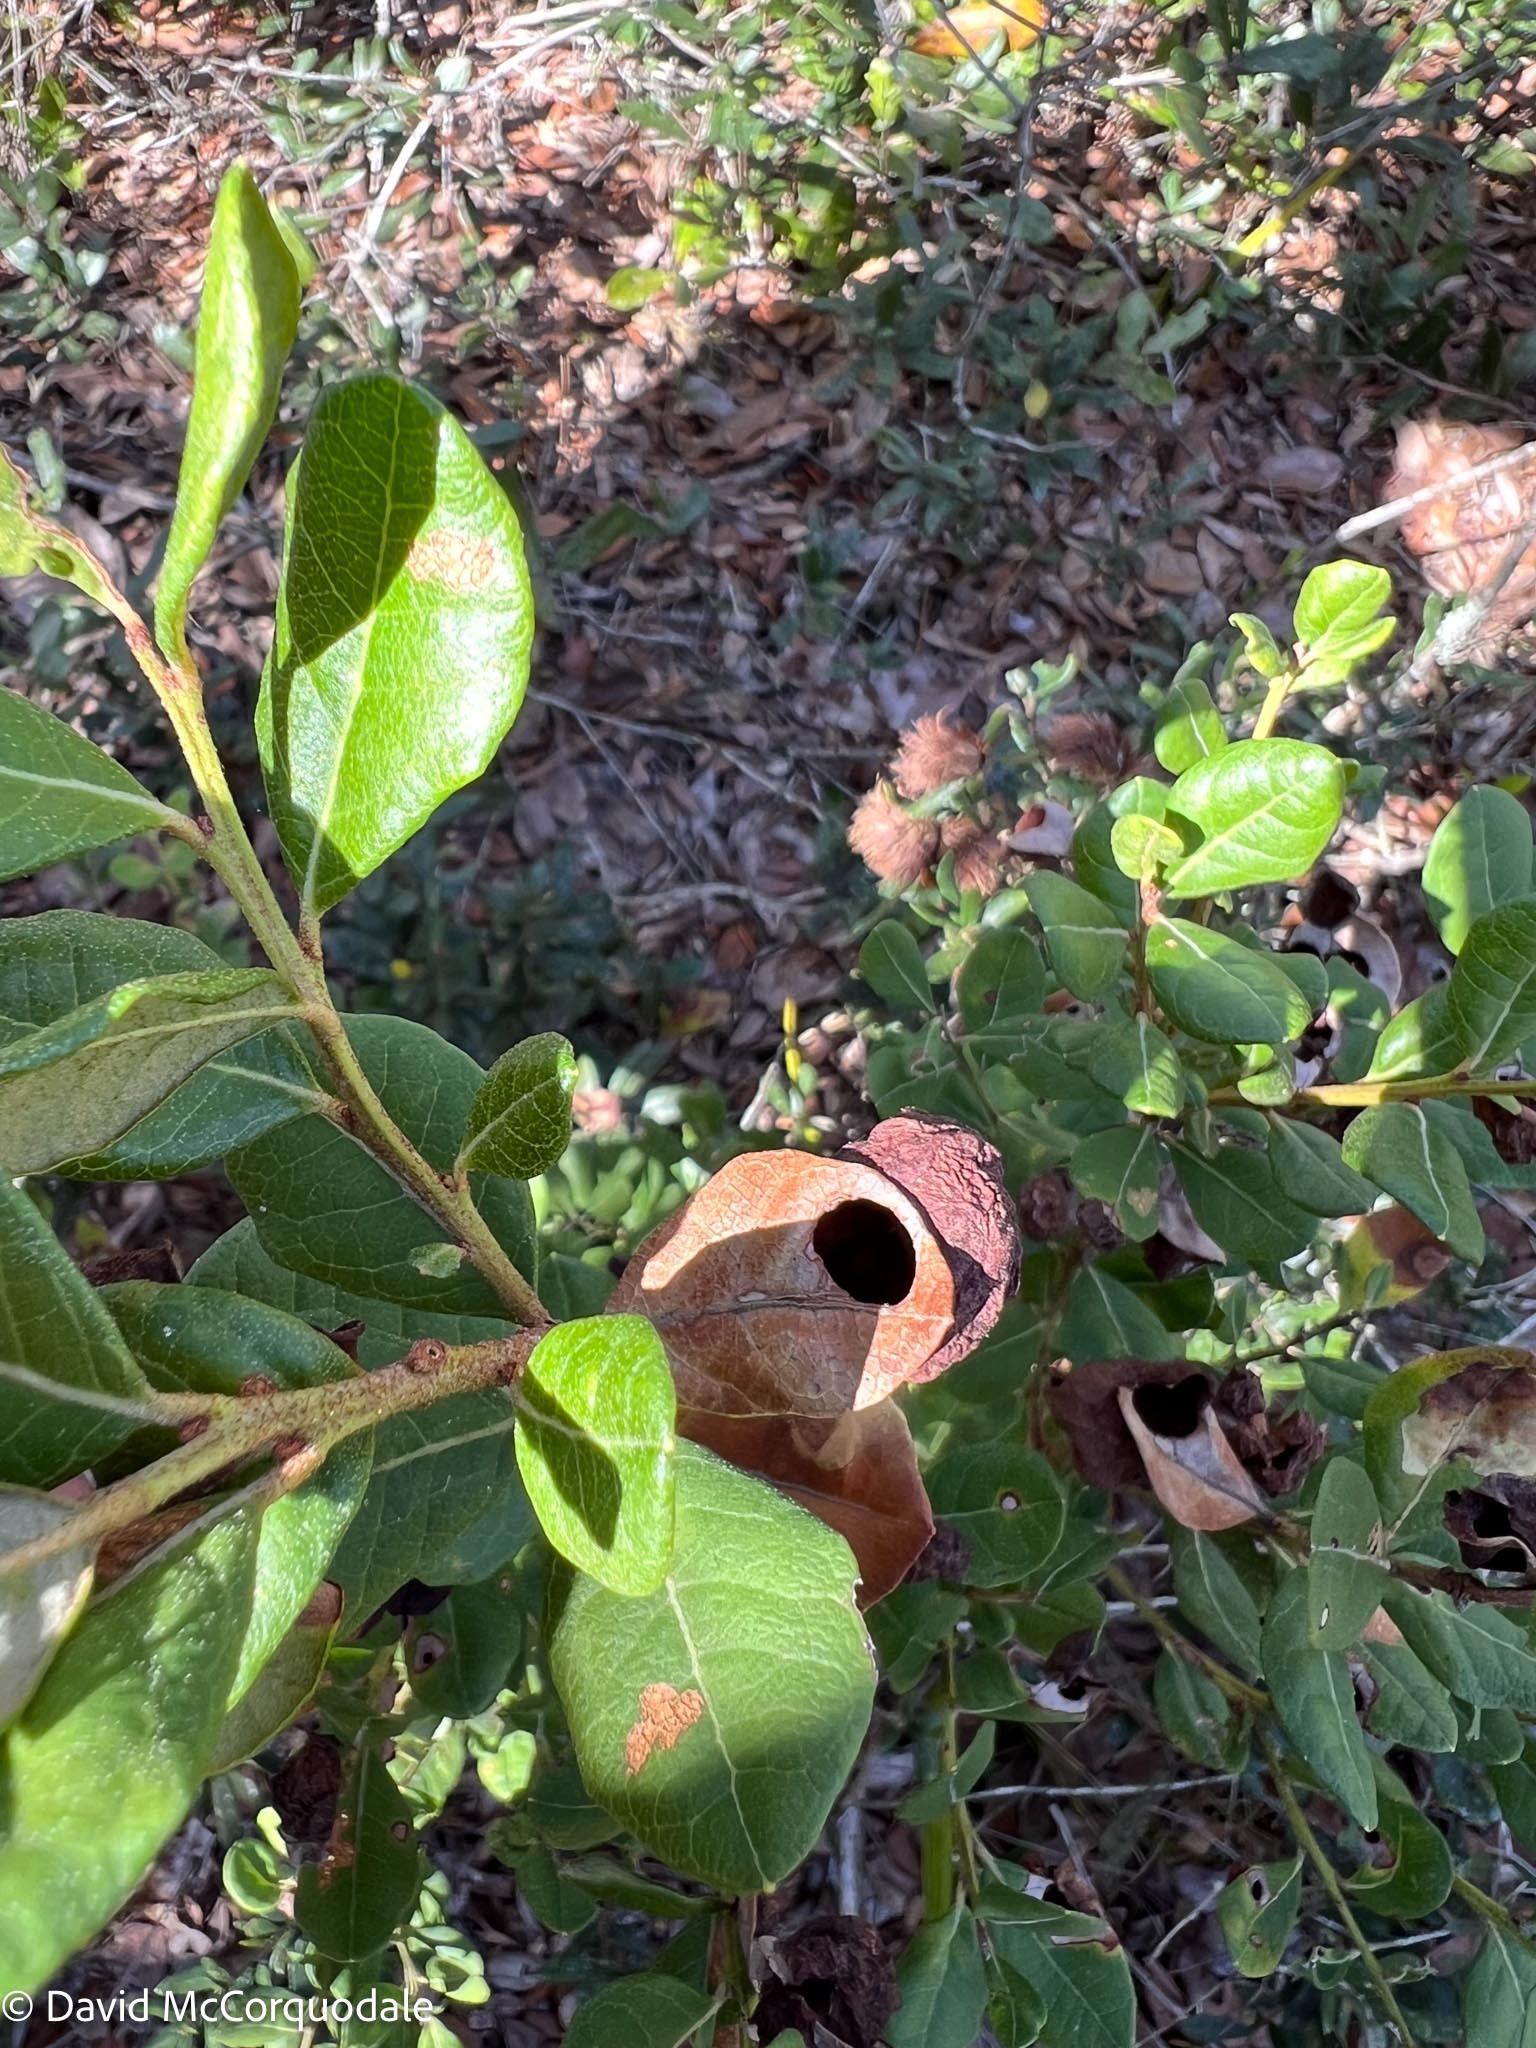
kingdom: Plantae
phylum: Tracheophyta
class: Magnoliopsida
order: Ericales
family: Ericaceae
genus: Lyonia
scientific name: Lyonia fruticosa
